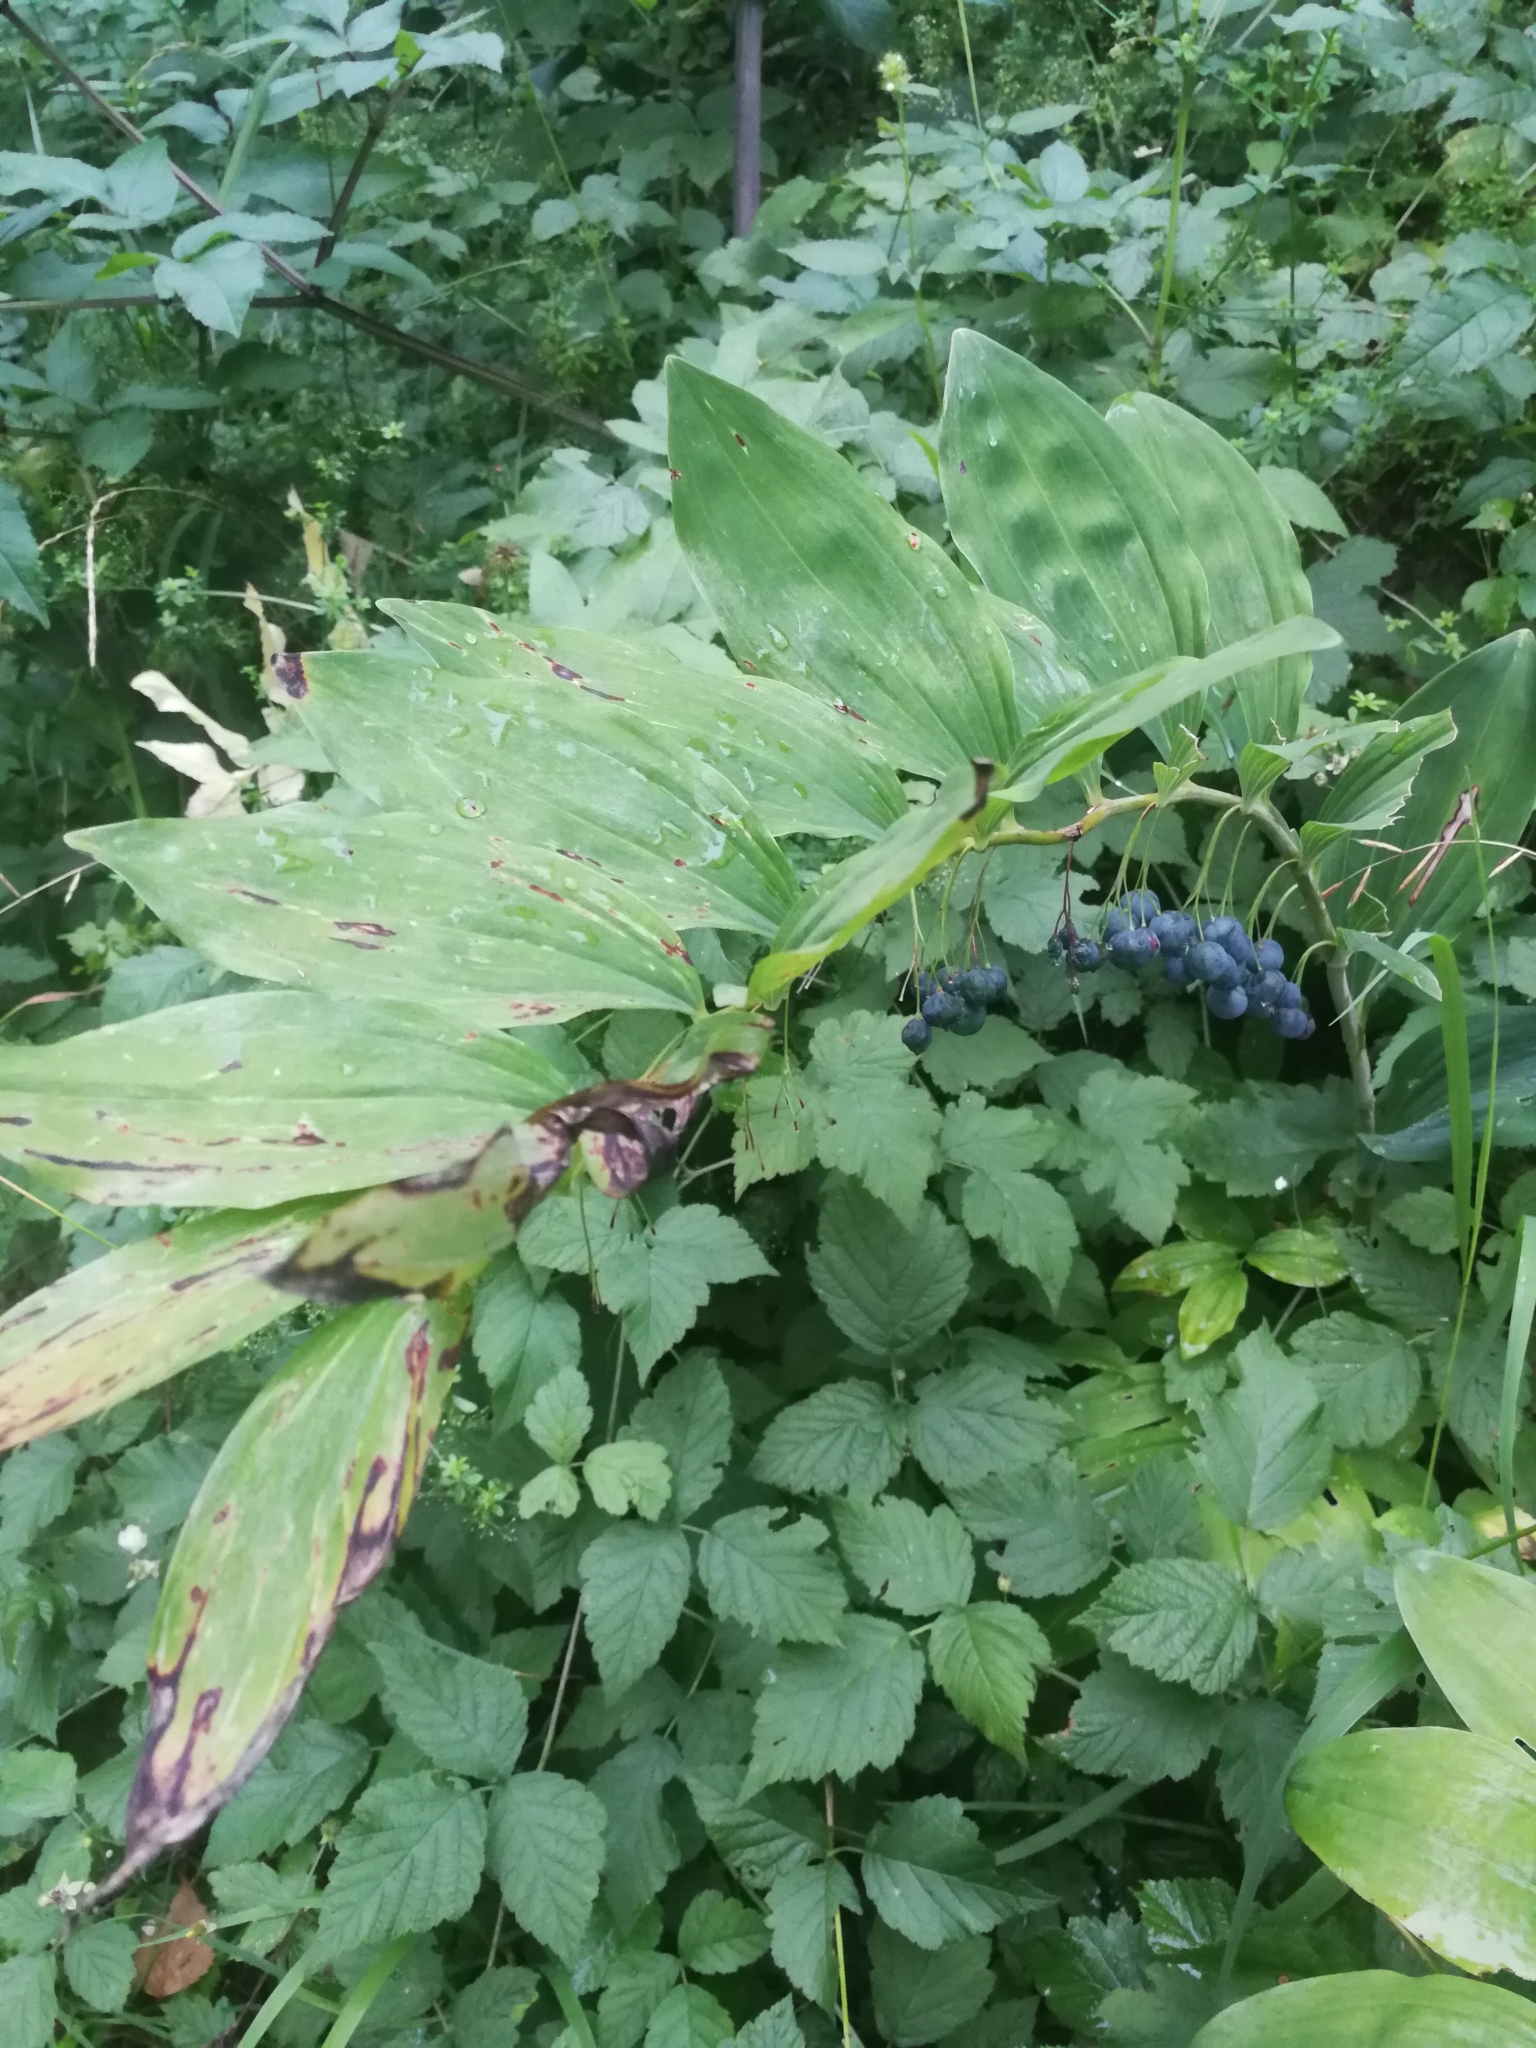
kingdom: Plantae
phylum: Tracheophyta
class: Liliopsida
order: Asparagales
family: Asparagaceae
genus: Polygonatum
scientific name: Polygonatum multiflorum
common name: Solomon's-seal
